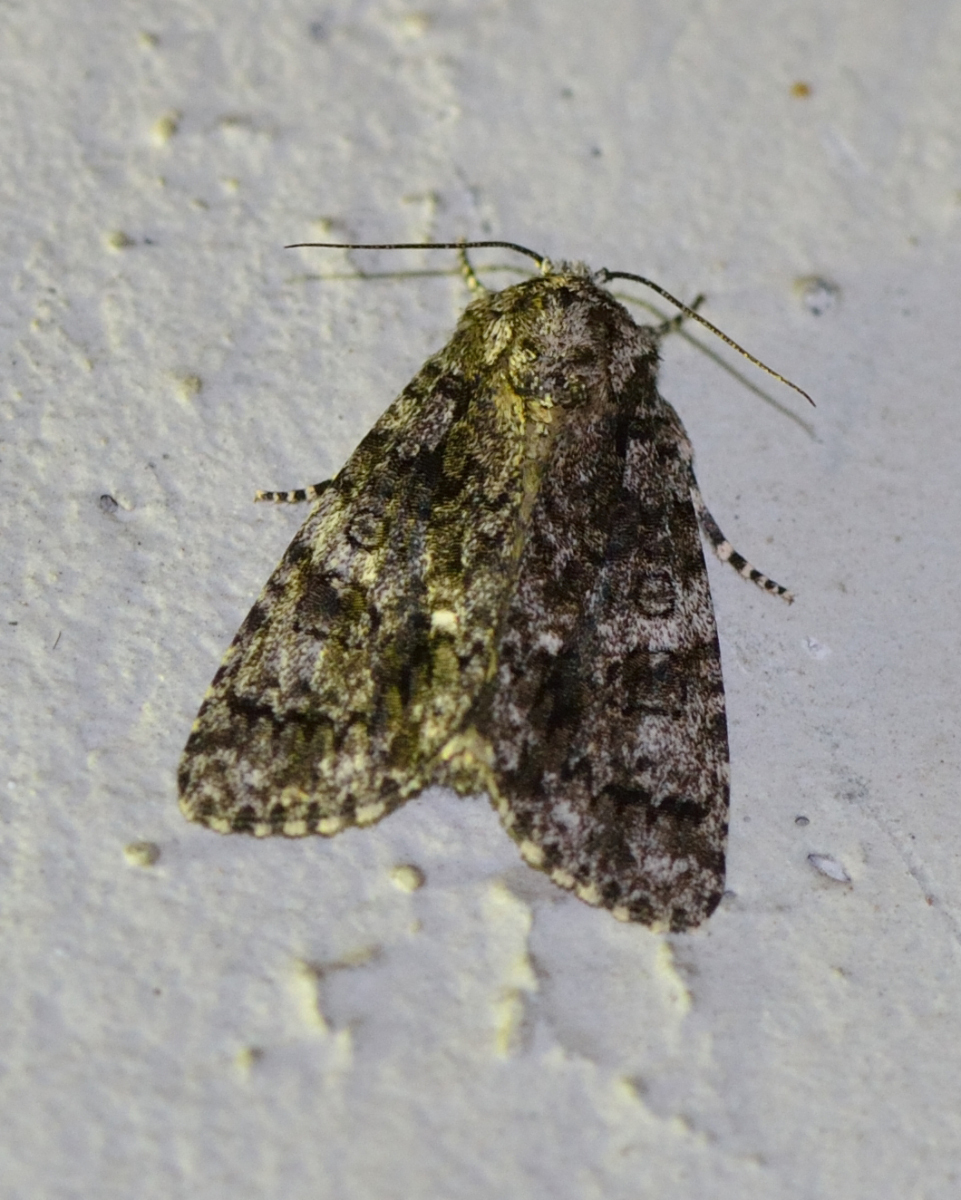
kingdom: Animalia
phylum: Arthropoda
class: Insecta
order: Lepidoptera
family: Noctuidae
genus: Acronicta
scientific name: Acronicta rumicis
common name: Knot grass
